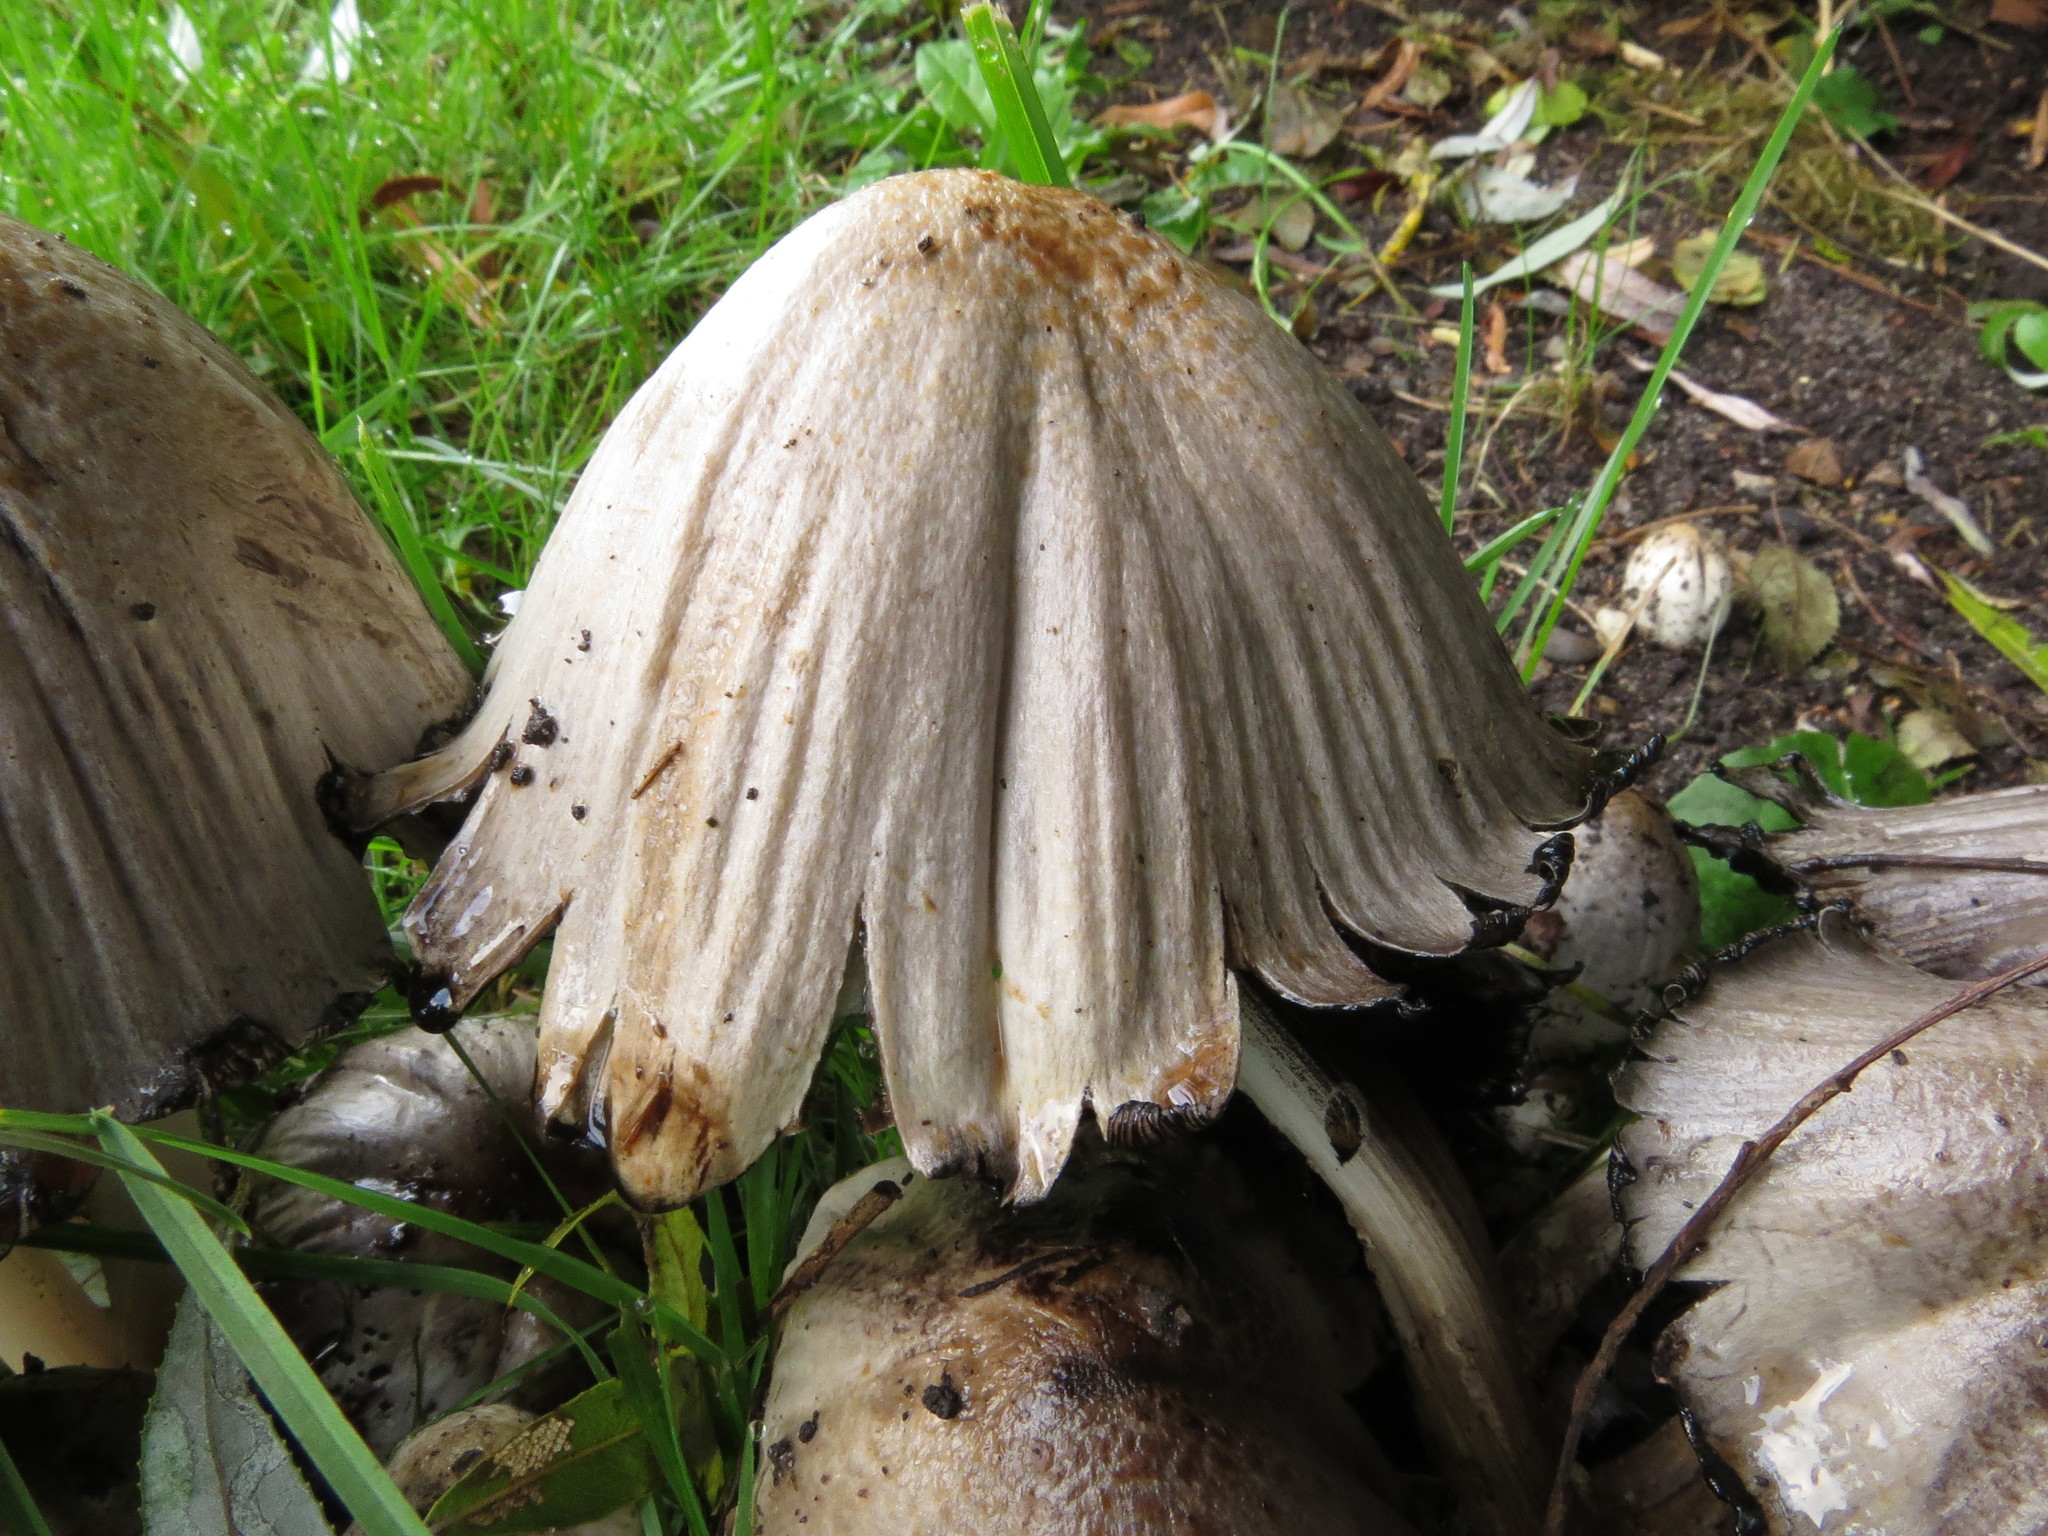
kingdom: Fungi
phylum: Basidiomycota
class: Agaricomycetes
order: Agaricales
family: Psathyrellaceae
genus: Coprinopsis
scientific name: Coprinopsis atramentaria
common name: Common ink-cap
